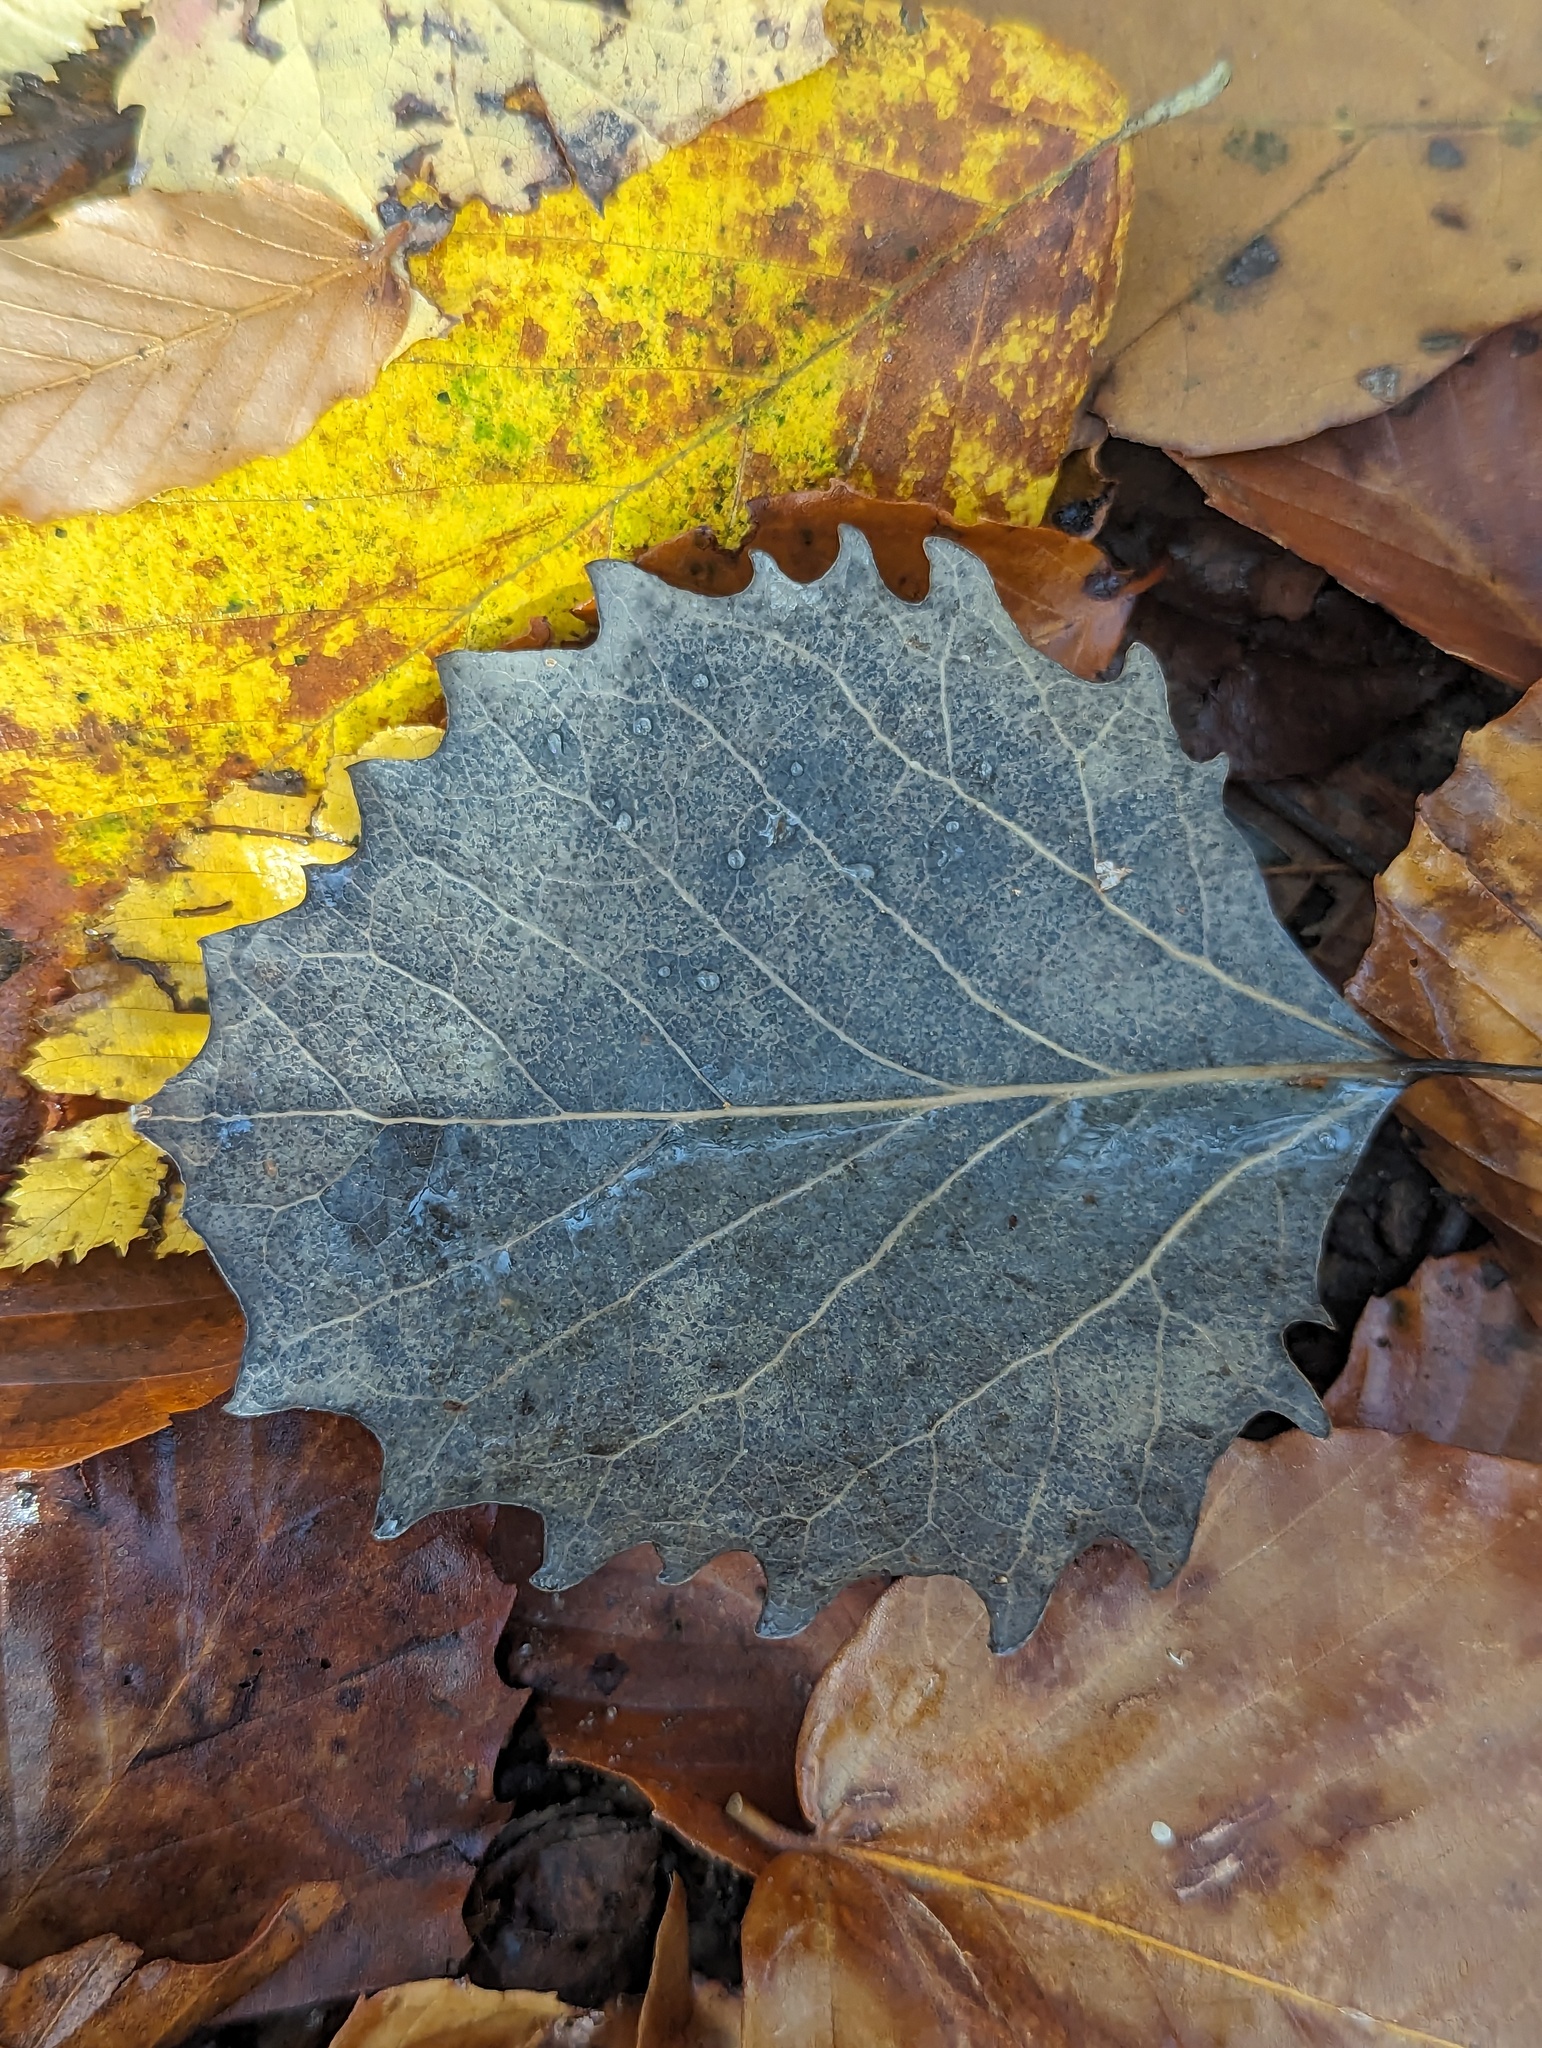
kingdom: Plantae
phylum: Tracheophyta
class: Magnoliopsida
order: Malpighiales
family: Salicaceae
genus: Populus
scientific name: Populus grandidentata
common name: Bigtooth aspen
